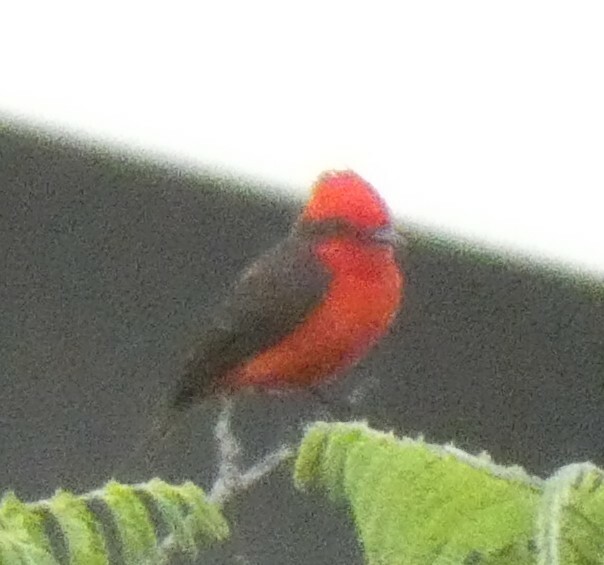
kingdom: Animalia
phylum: Chordata
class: Aves
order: Passeriformes
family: Tyrannidae
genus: Pyrocephalus
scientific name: Pyrocephalus rubinus
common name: Vermilion flycatcher
